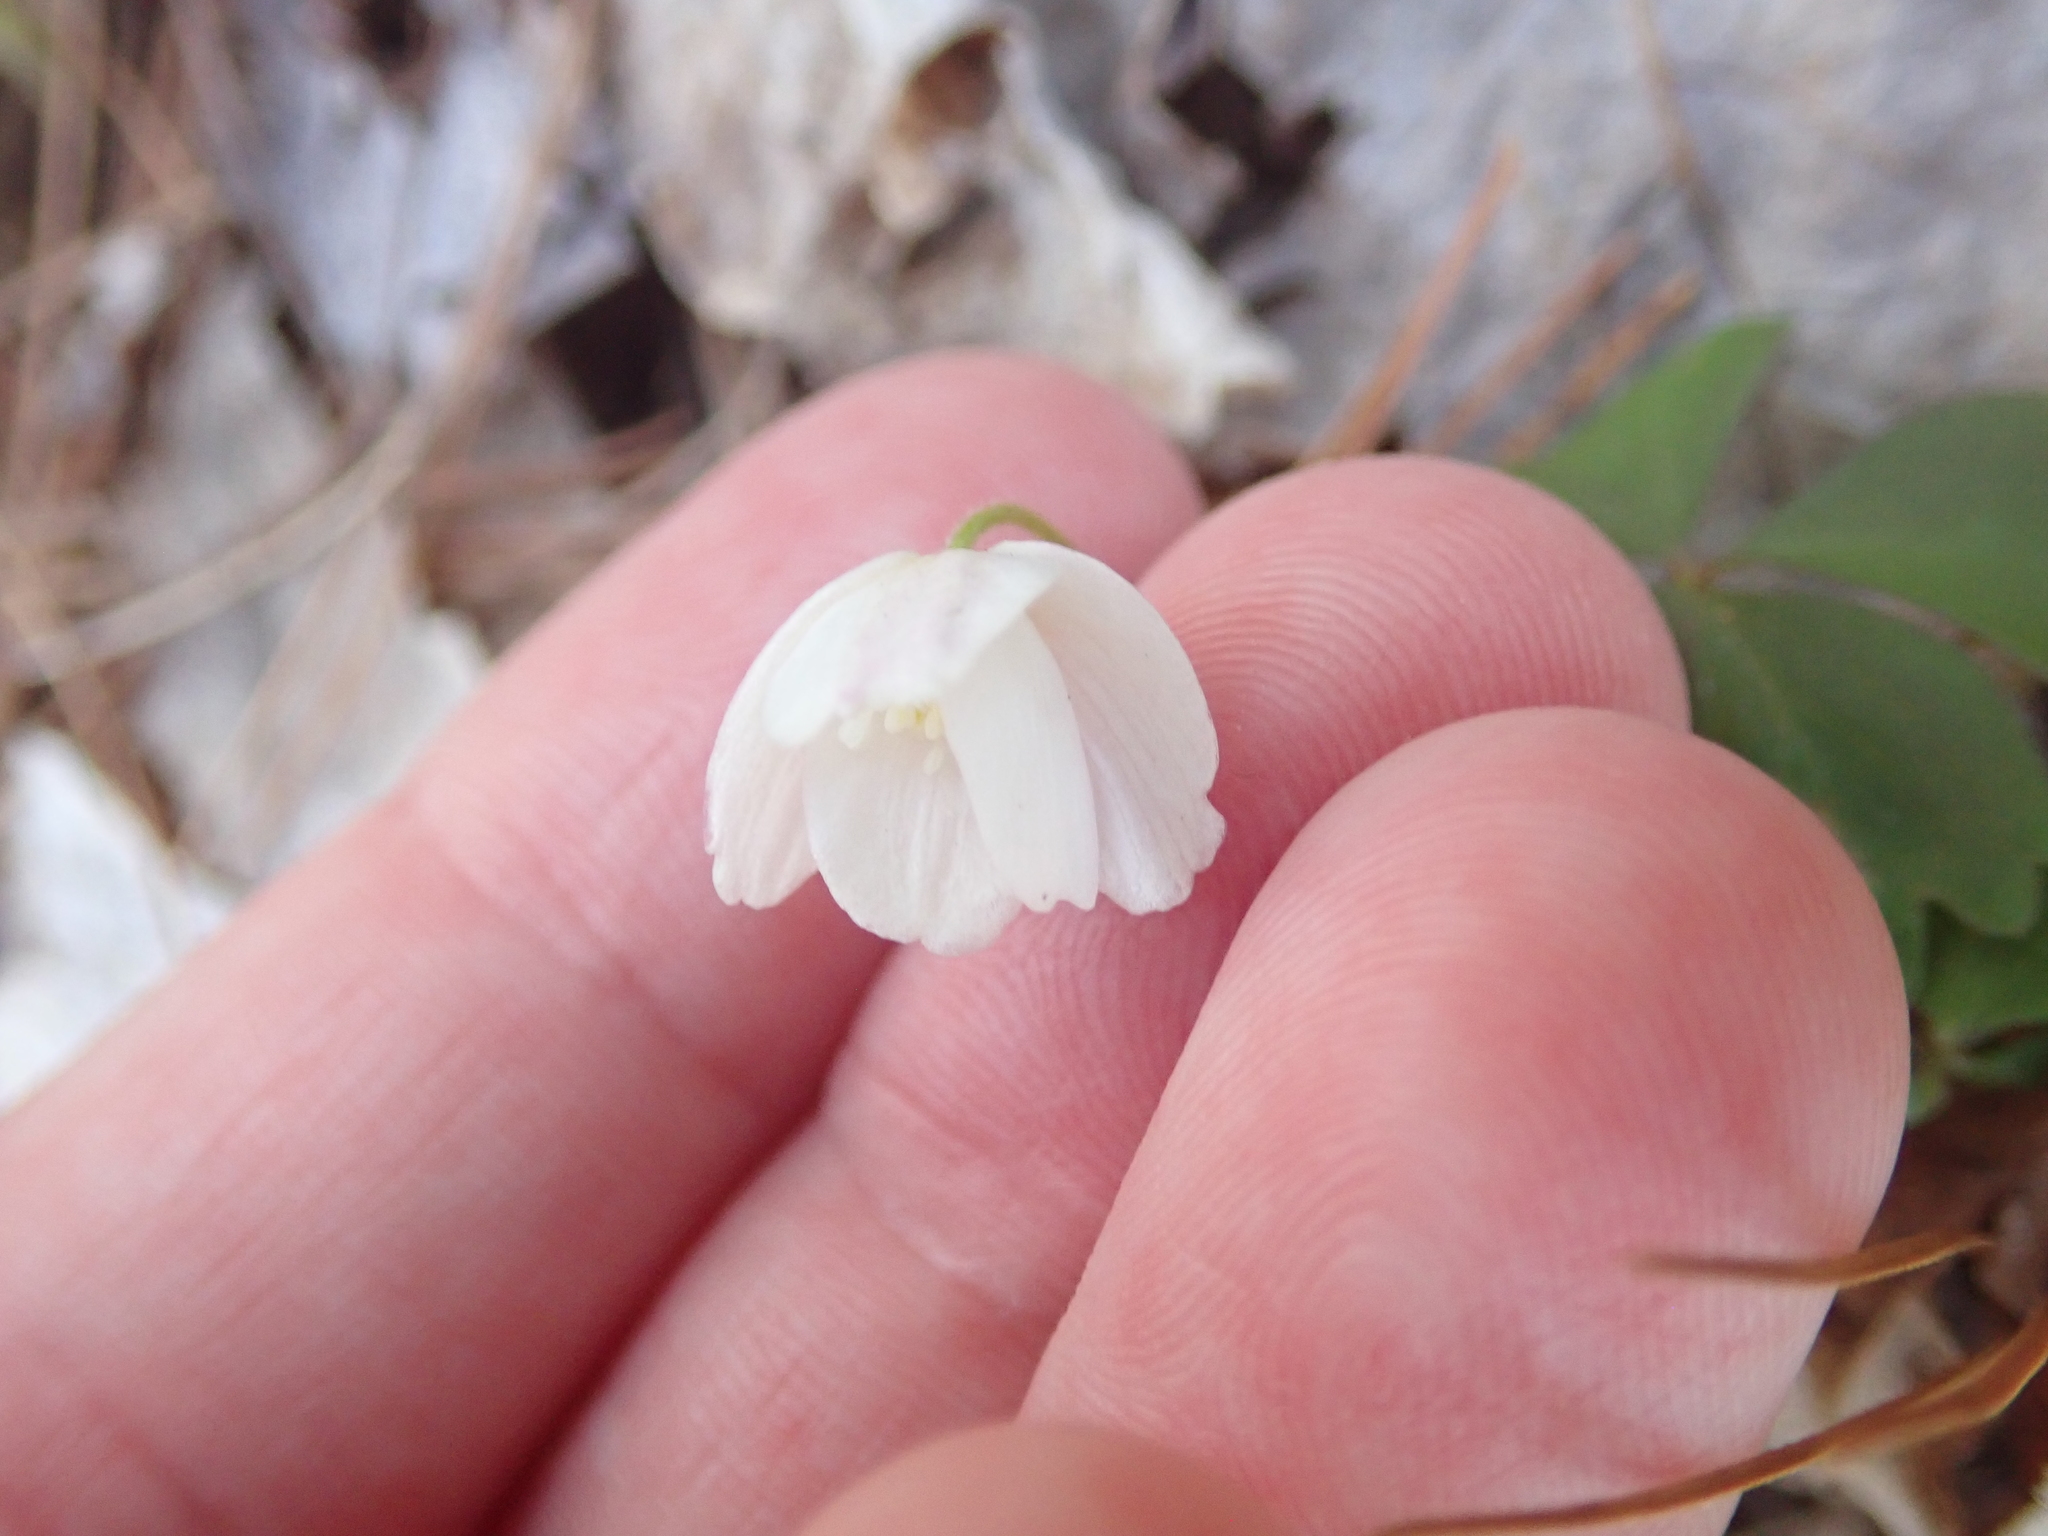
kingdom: Plantae
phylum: Tracheophyta
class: Magnoliopsida
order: Ranunculales
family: Ranunculaceae
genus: Anemone
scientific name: Anemone quinquefolia
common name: Wood anemone
